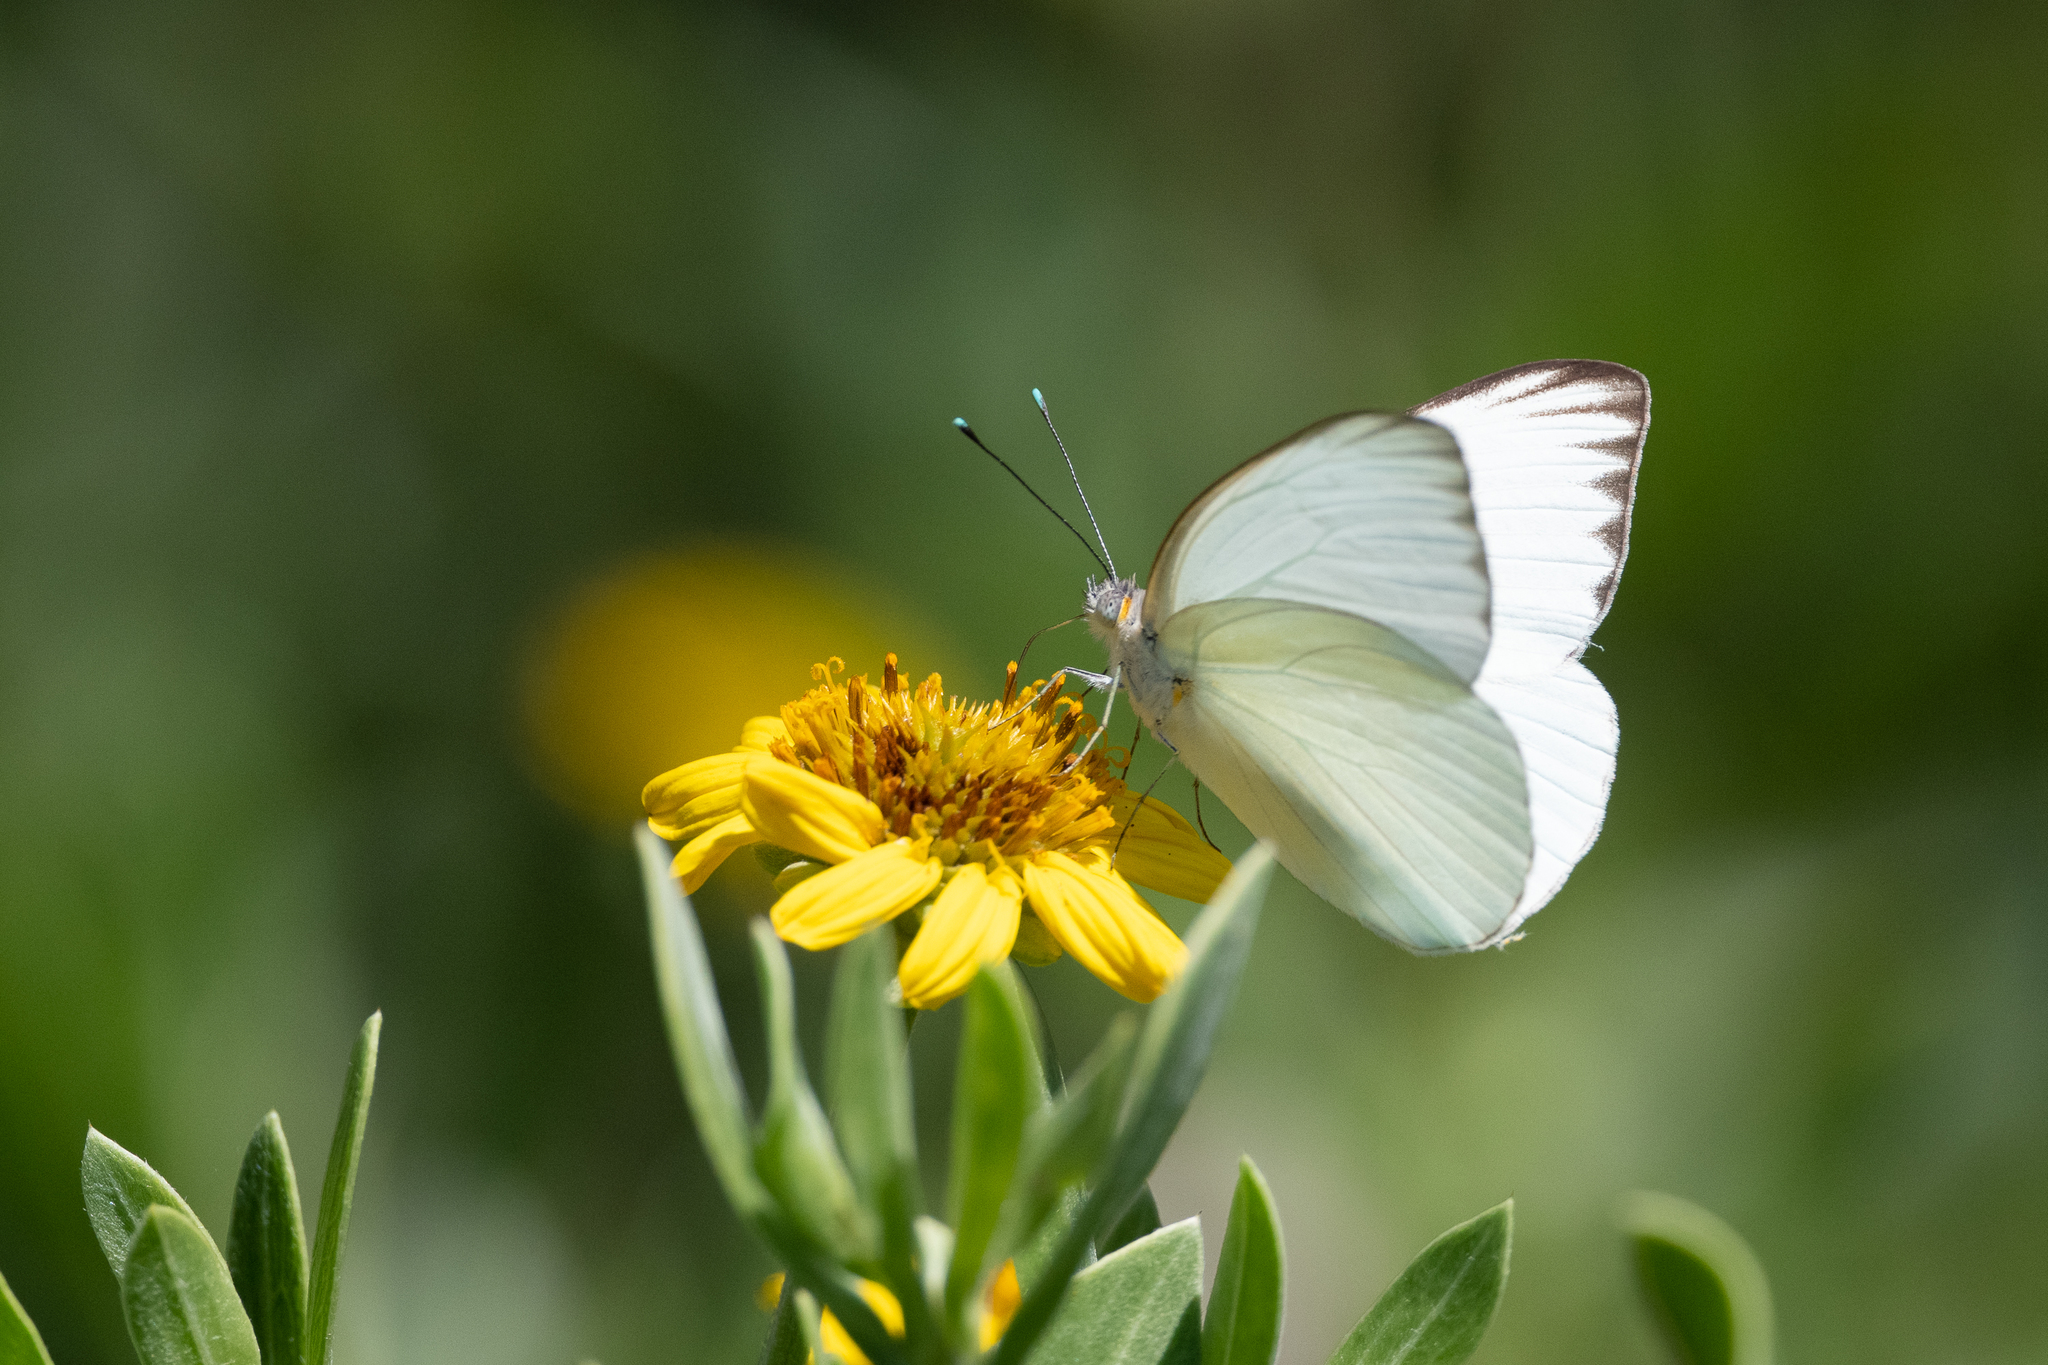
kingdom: Animalia
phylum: Arthropoda
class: Insecta
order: Lepidoptera
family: Pieridae
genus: Ascia
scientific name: Ascia monuste
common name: Great southern white
